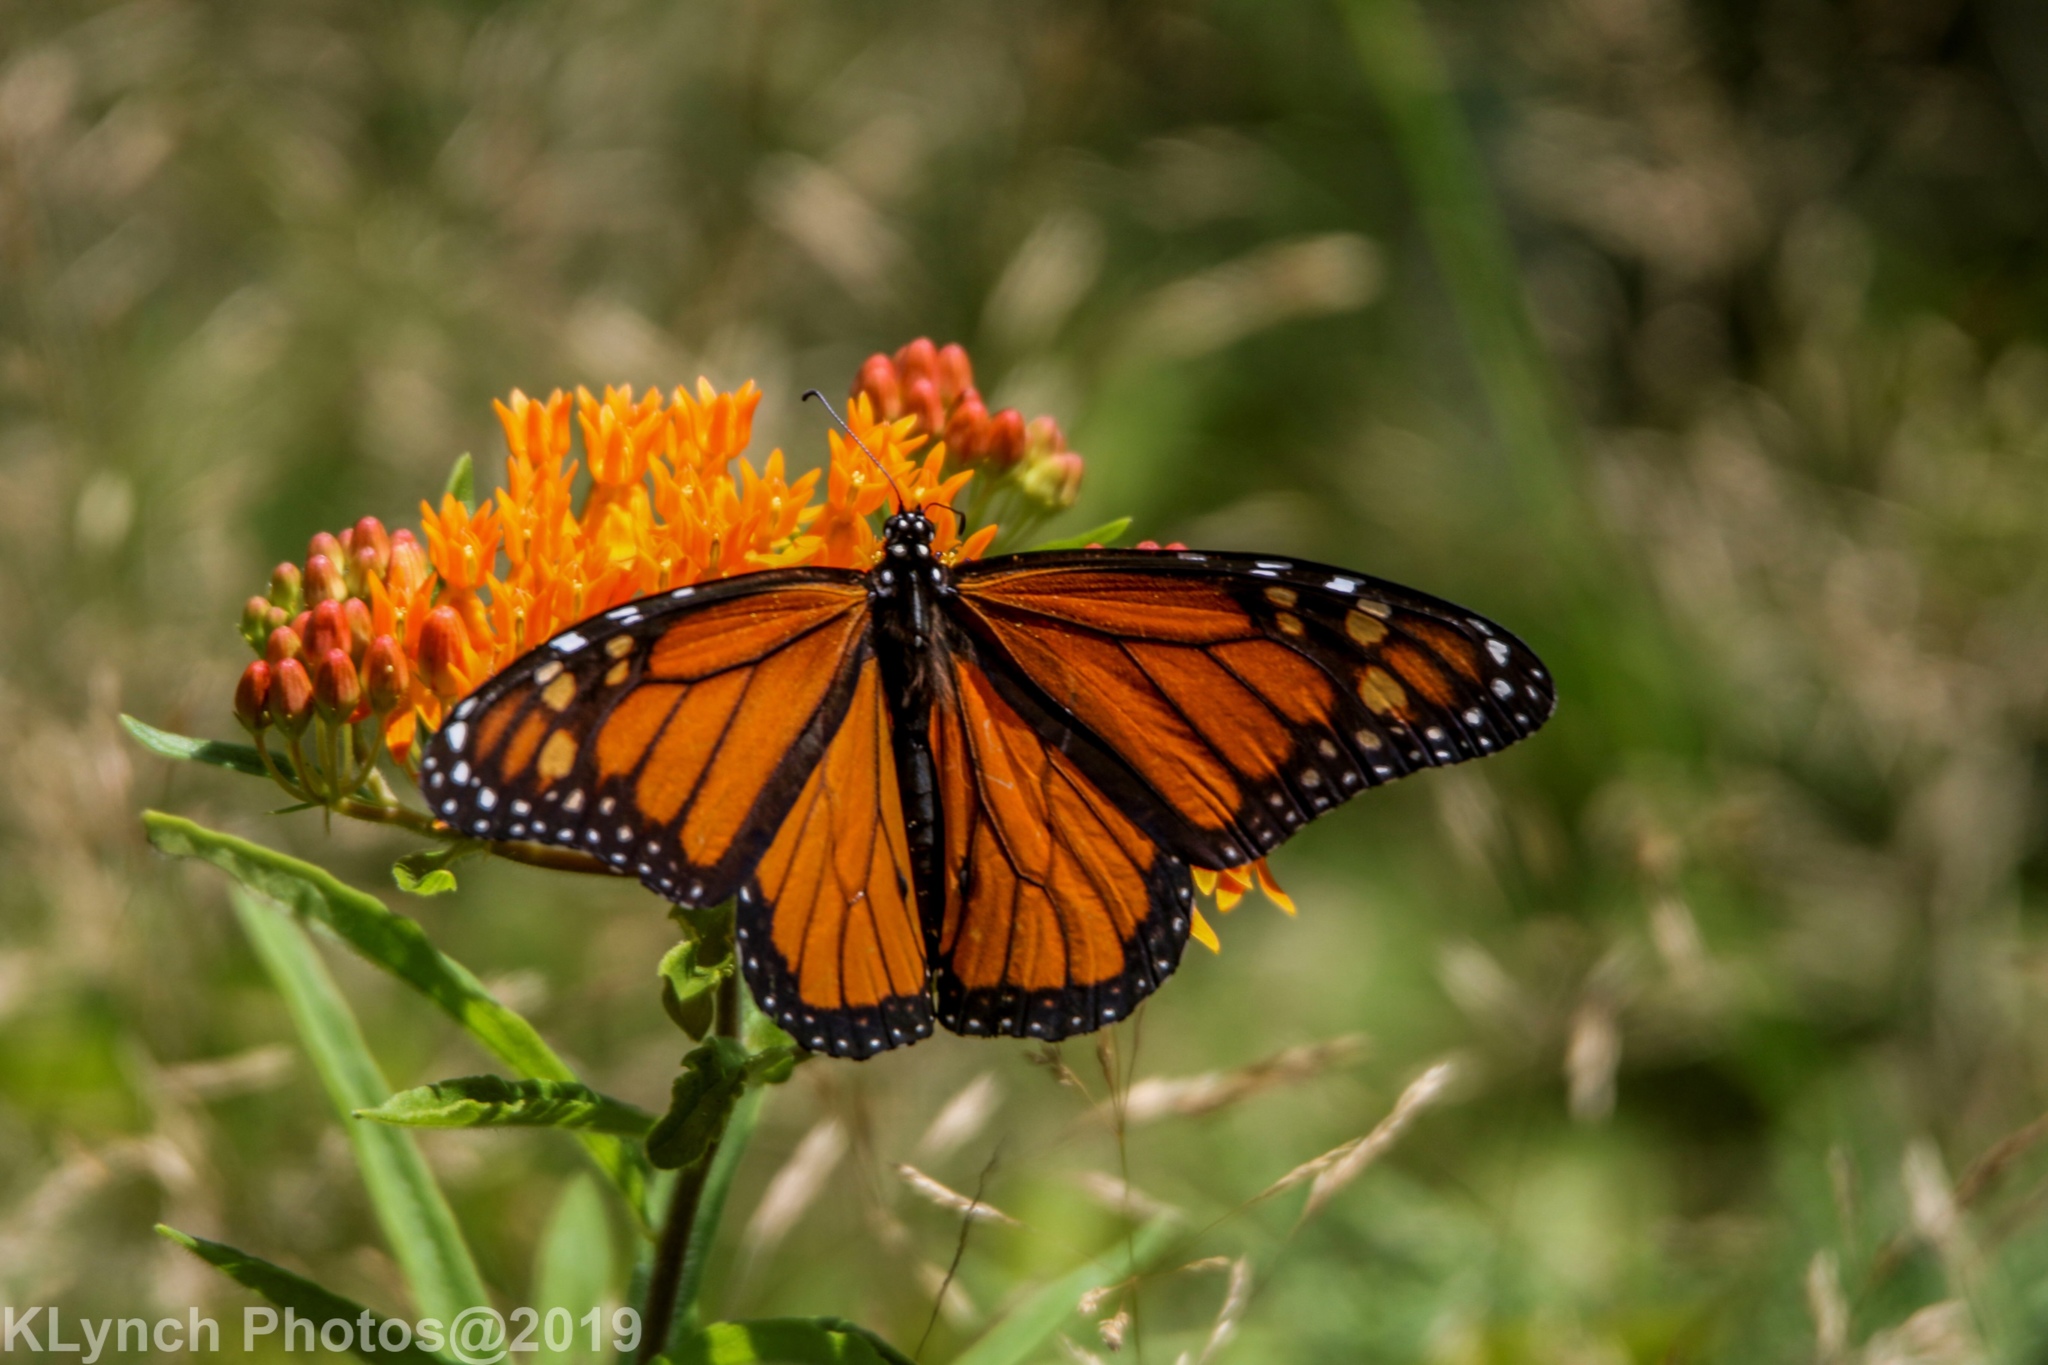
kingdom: Animalia
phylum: Arthropoda
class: Insecta
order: Lepidoptera
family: Nymphalidae
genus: Danaus
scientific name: Danaus plexippus
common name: Monarch
